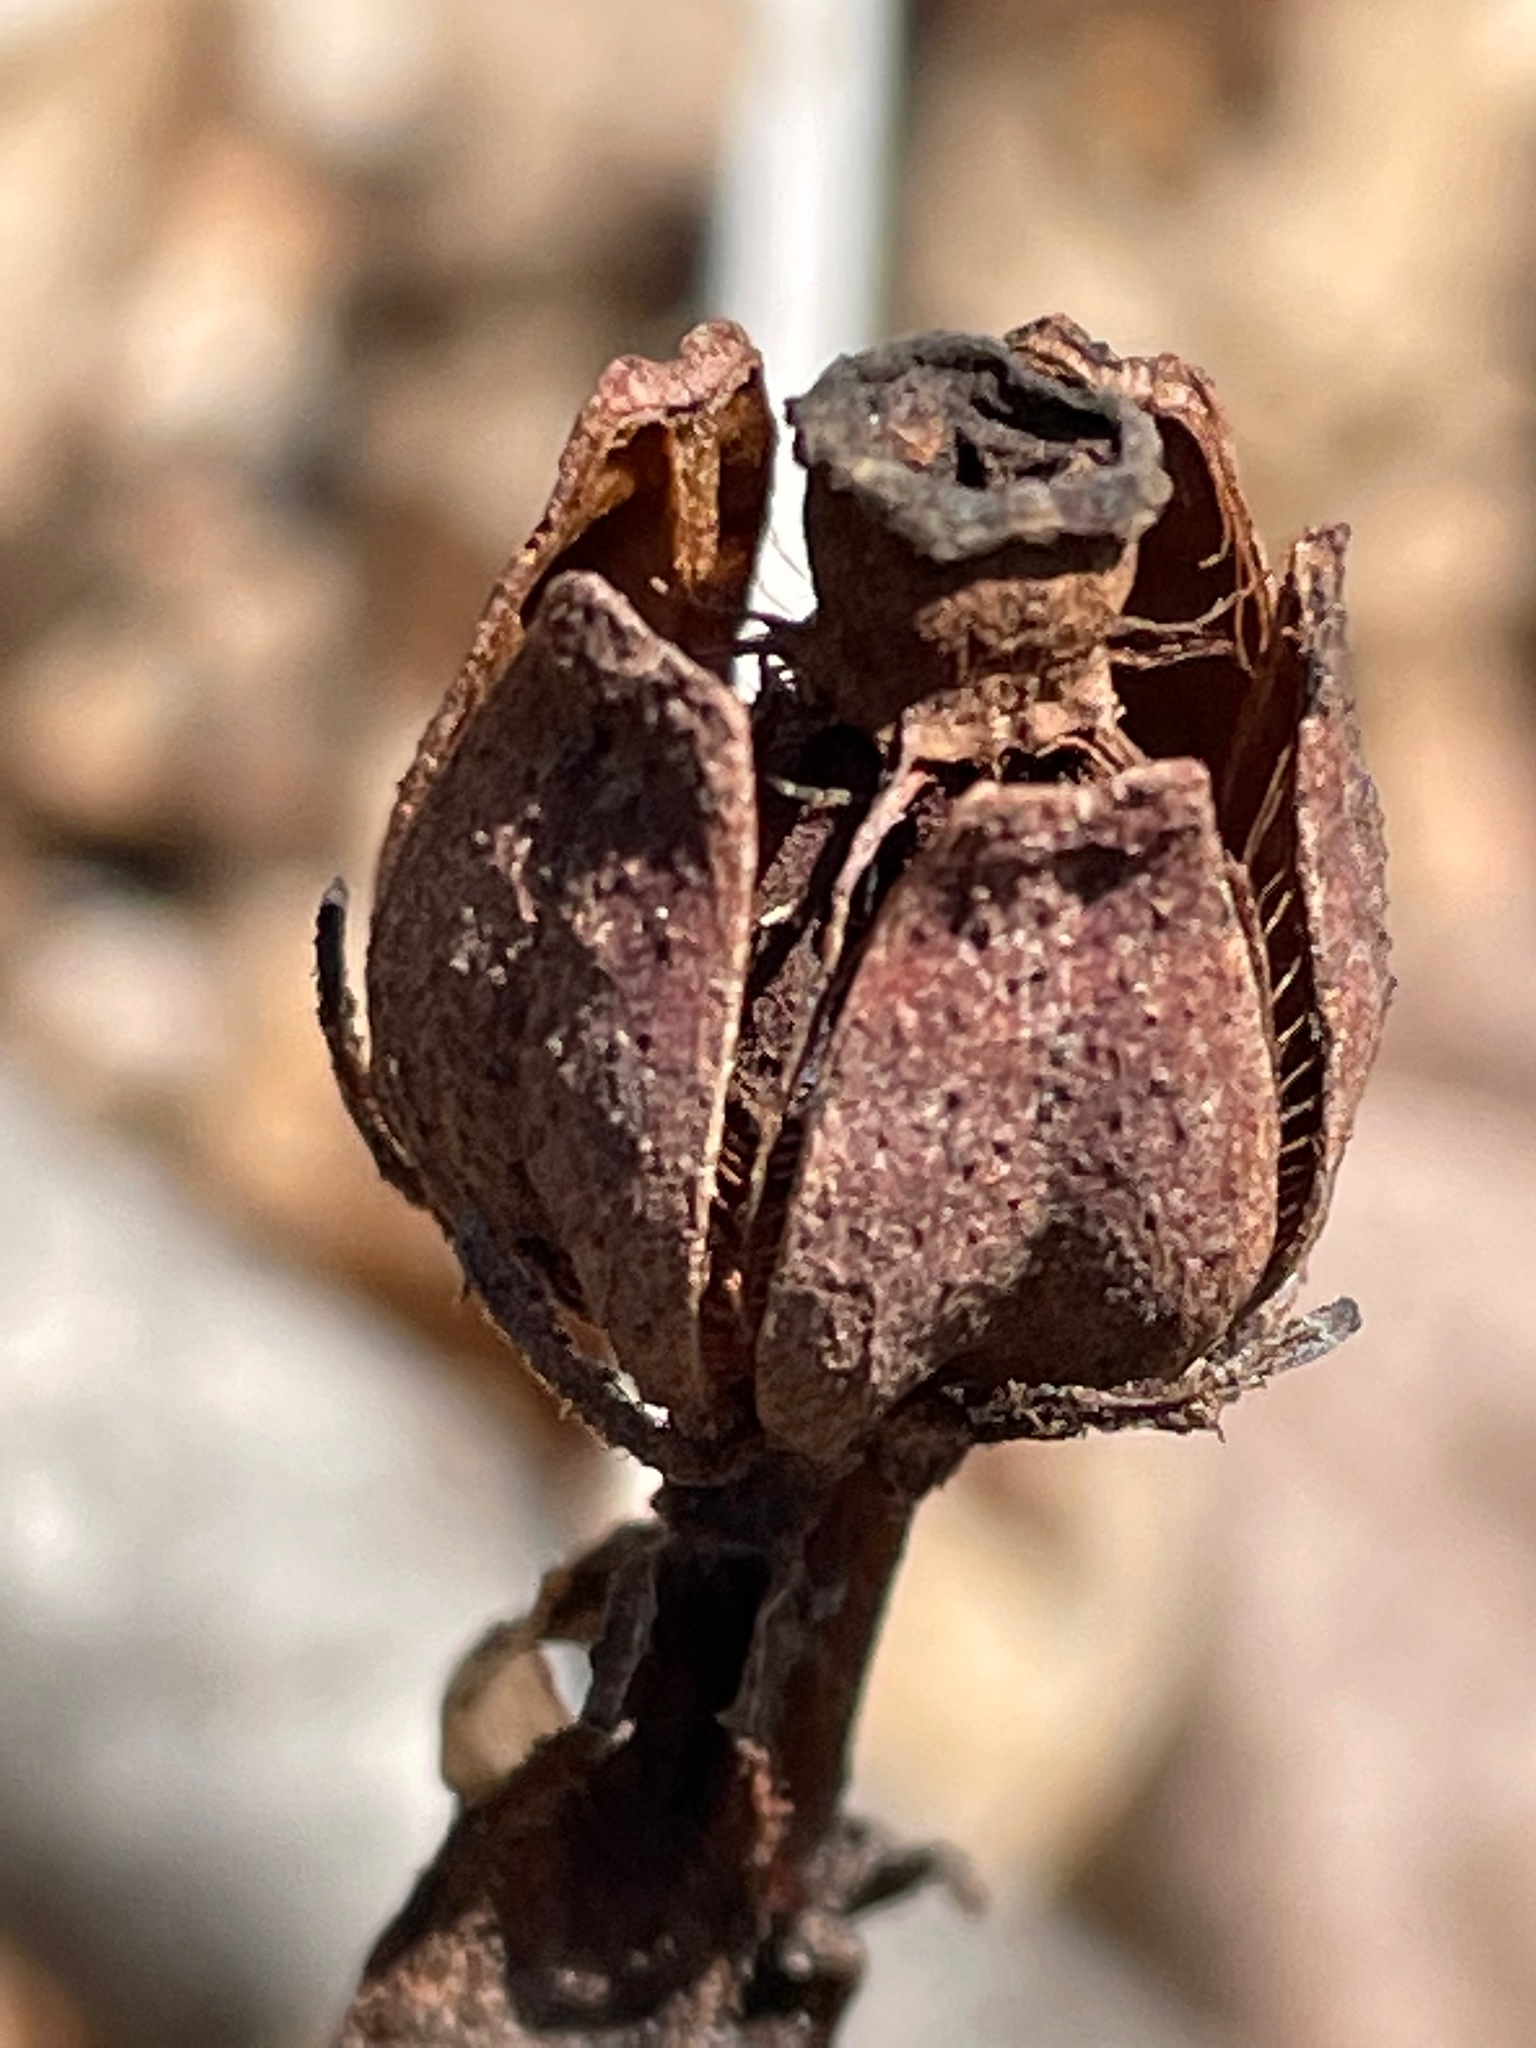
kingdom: Plantae
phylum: Tracheophyta
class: Magnoliopsida
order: Ericales
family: Ericaceae
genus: Monotropa
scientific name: Monotropa uniflora
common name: Convulsion root
